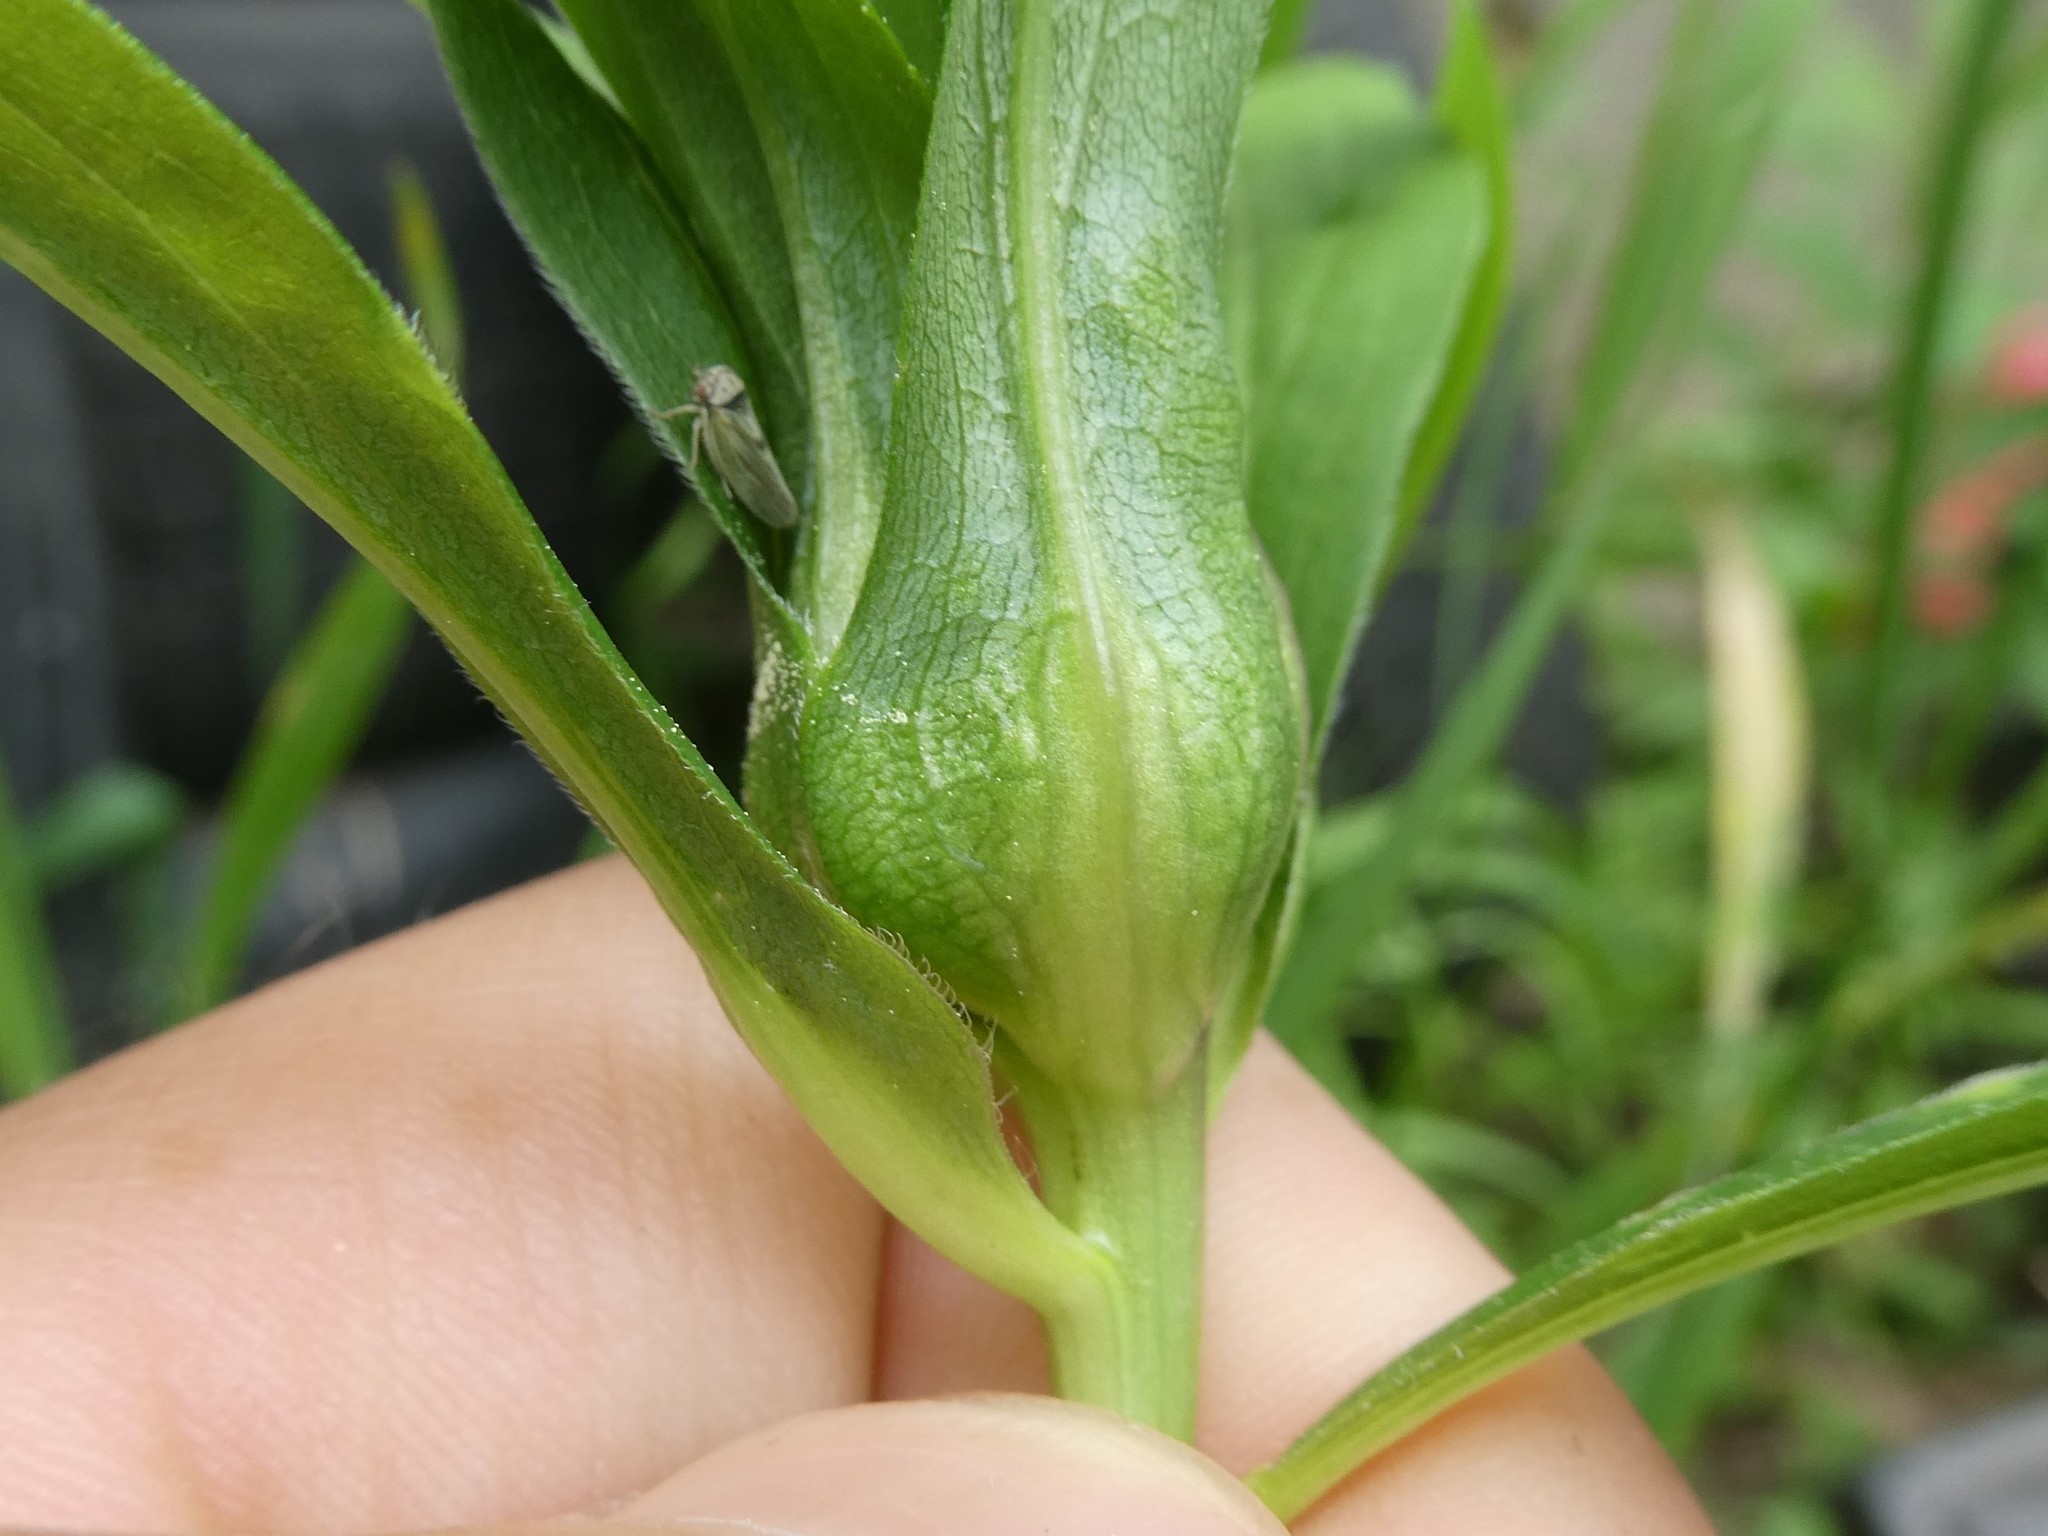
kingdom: Animalia
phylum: Arthropoda
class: Insecta
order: Diptera
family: Cecidomyiidae
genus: Dasineura
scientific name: Dasineura folliculi
